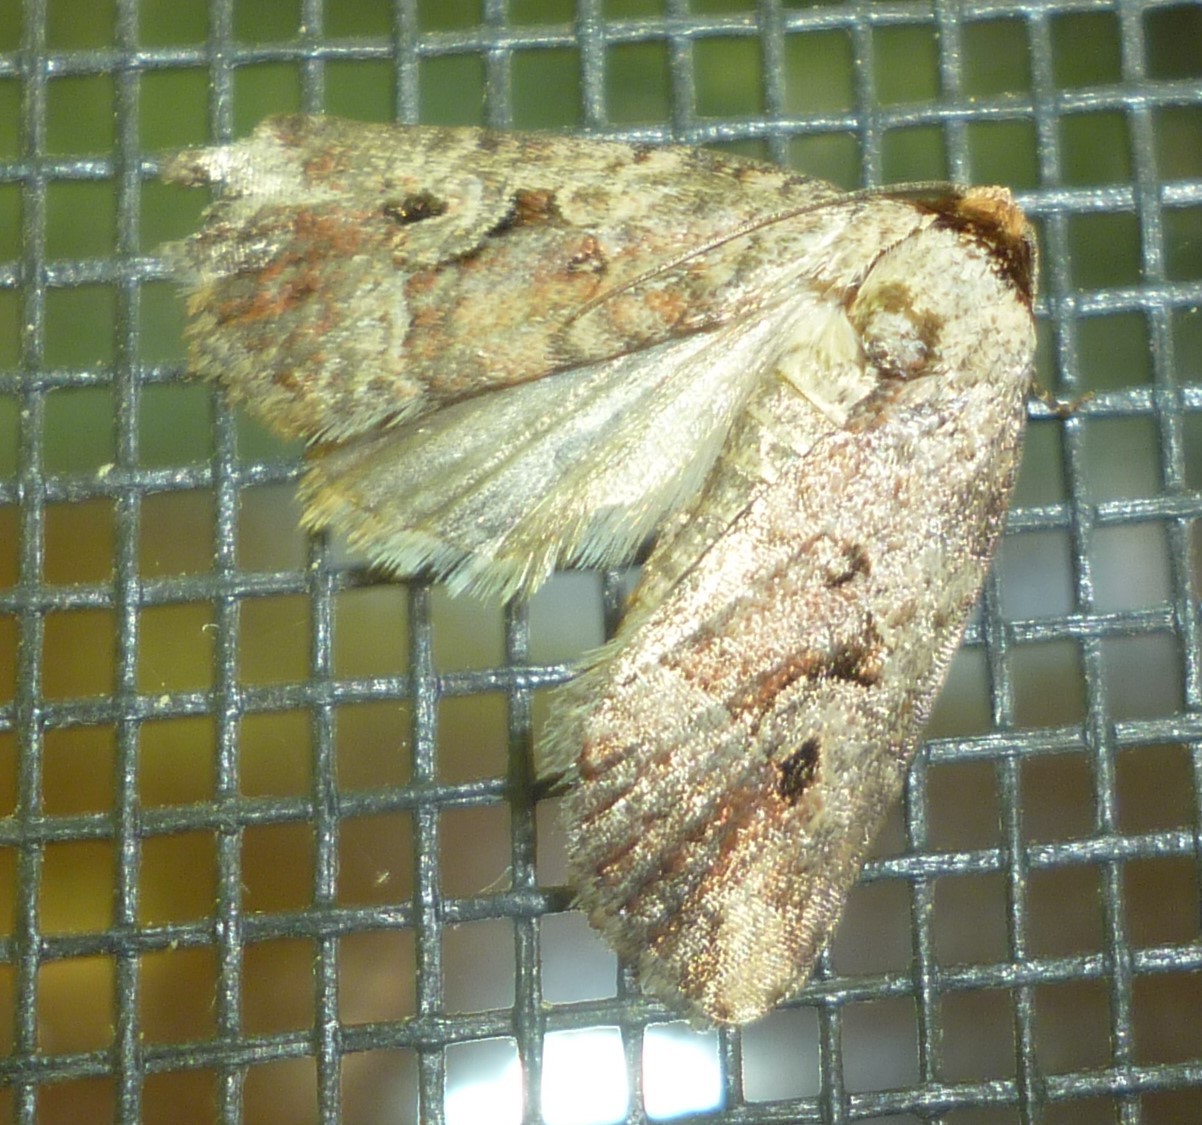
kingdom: Animalia
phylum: Arthropoda
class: Insecta
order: Lepidoptera
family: Noctuidae
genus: Elaphria
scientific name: Elaphria alapallida
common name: Pale-winged midget
